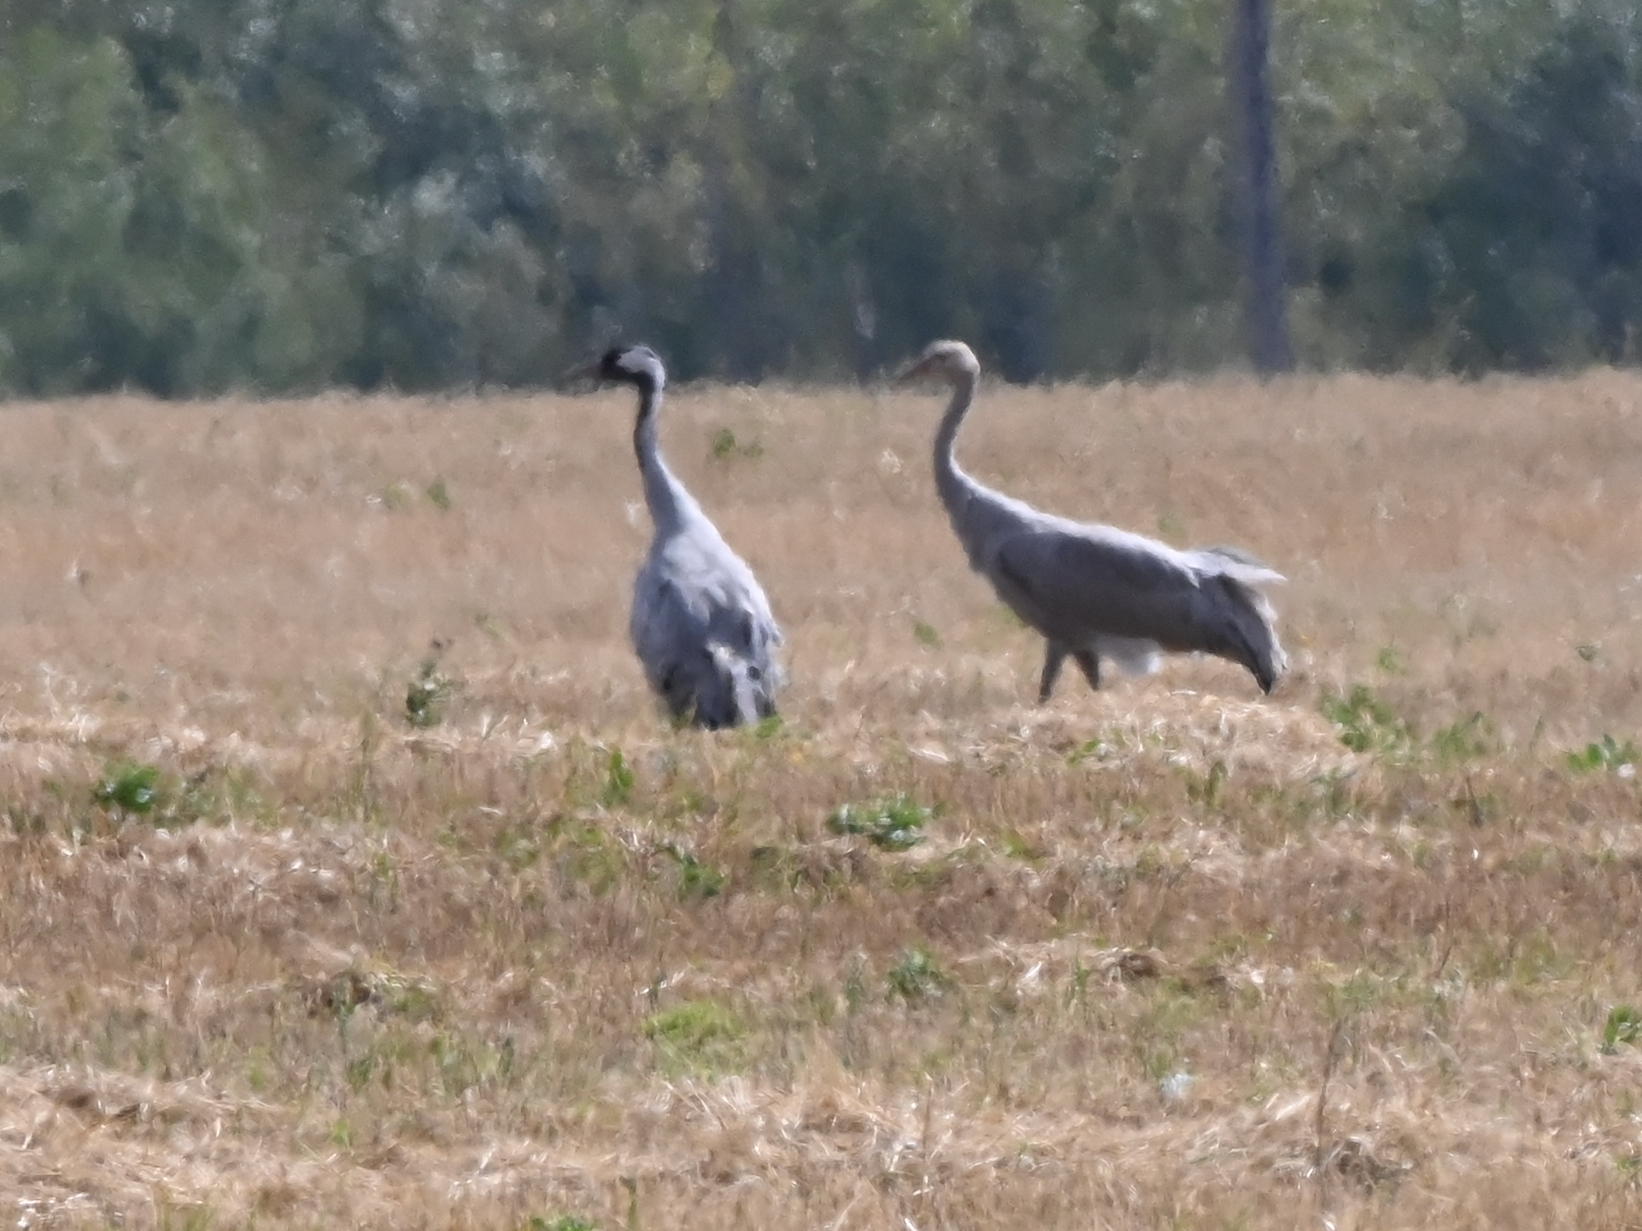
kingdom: Animalia
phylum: Chordata
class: Aves
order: Gruiformes
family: Gruidae
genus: Grus
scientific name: Grus grus
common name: Common crane
